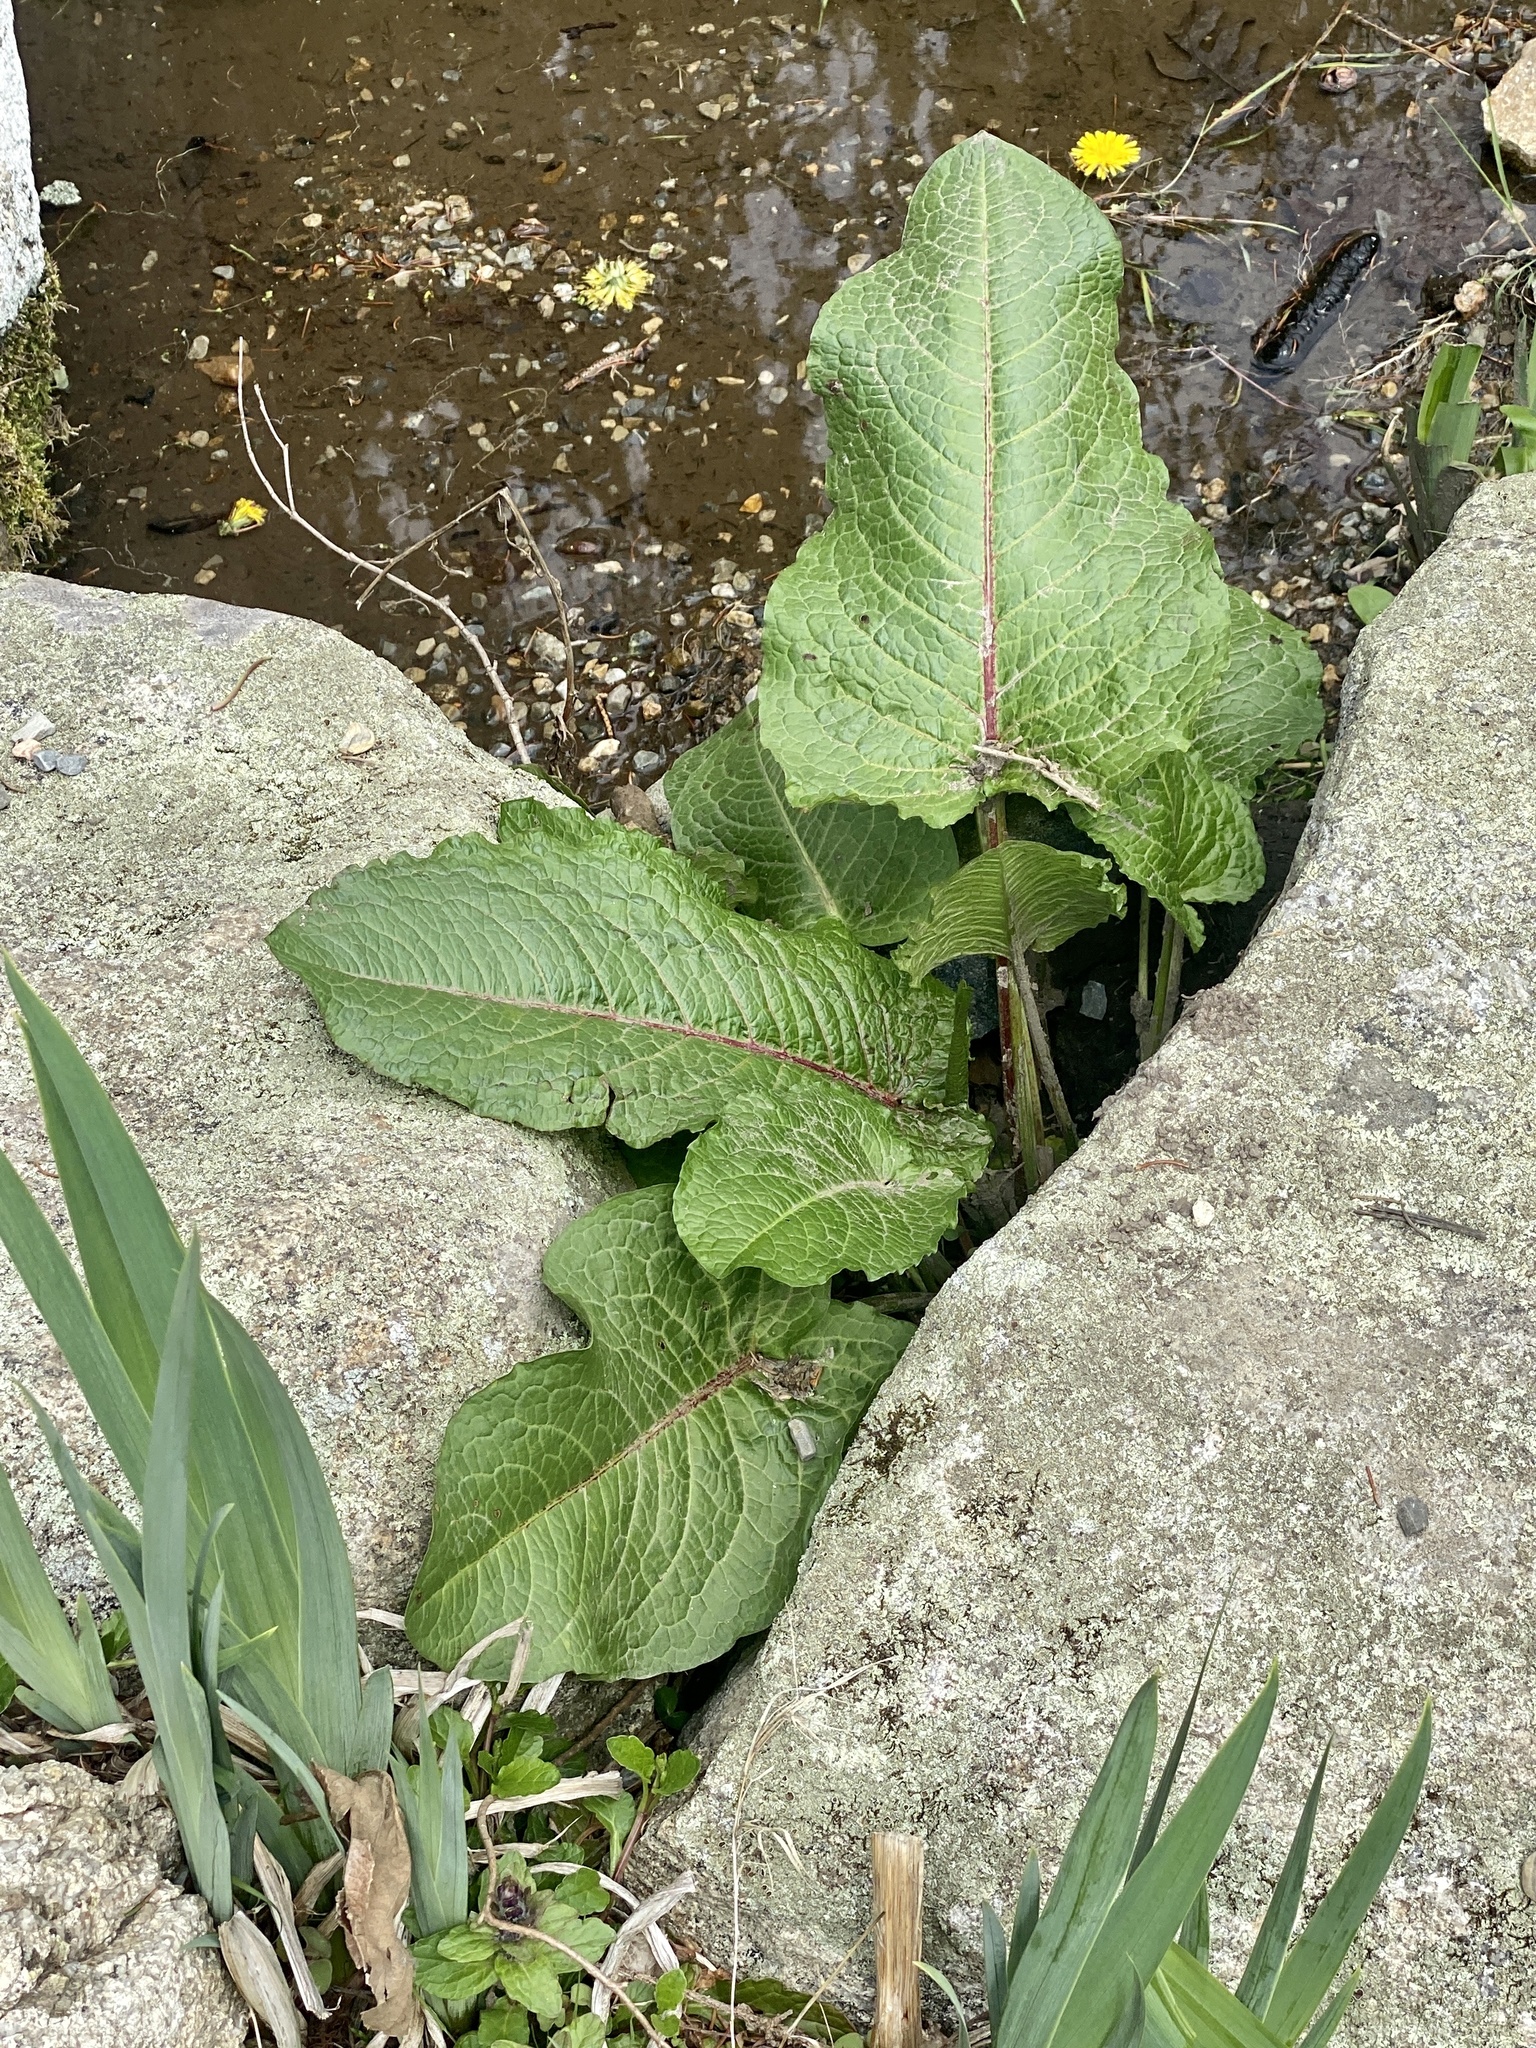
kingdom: Plantae
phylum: Tracheophyta
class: Magnoliopsida
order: Caryophyllales
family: Polygonaceae
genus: Rumex
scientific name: Rumex obtusifolius
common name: Bitter dock
